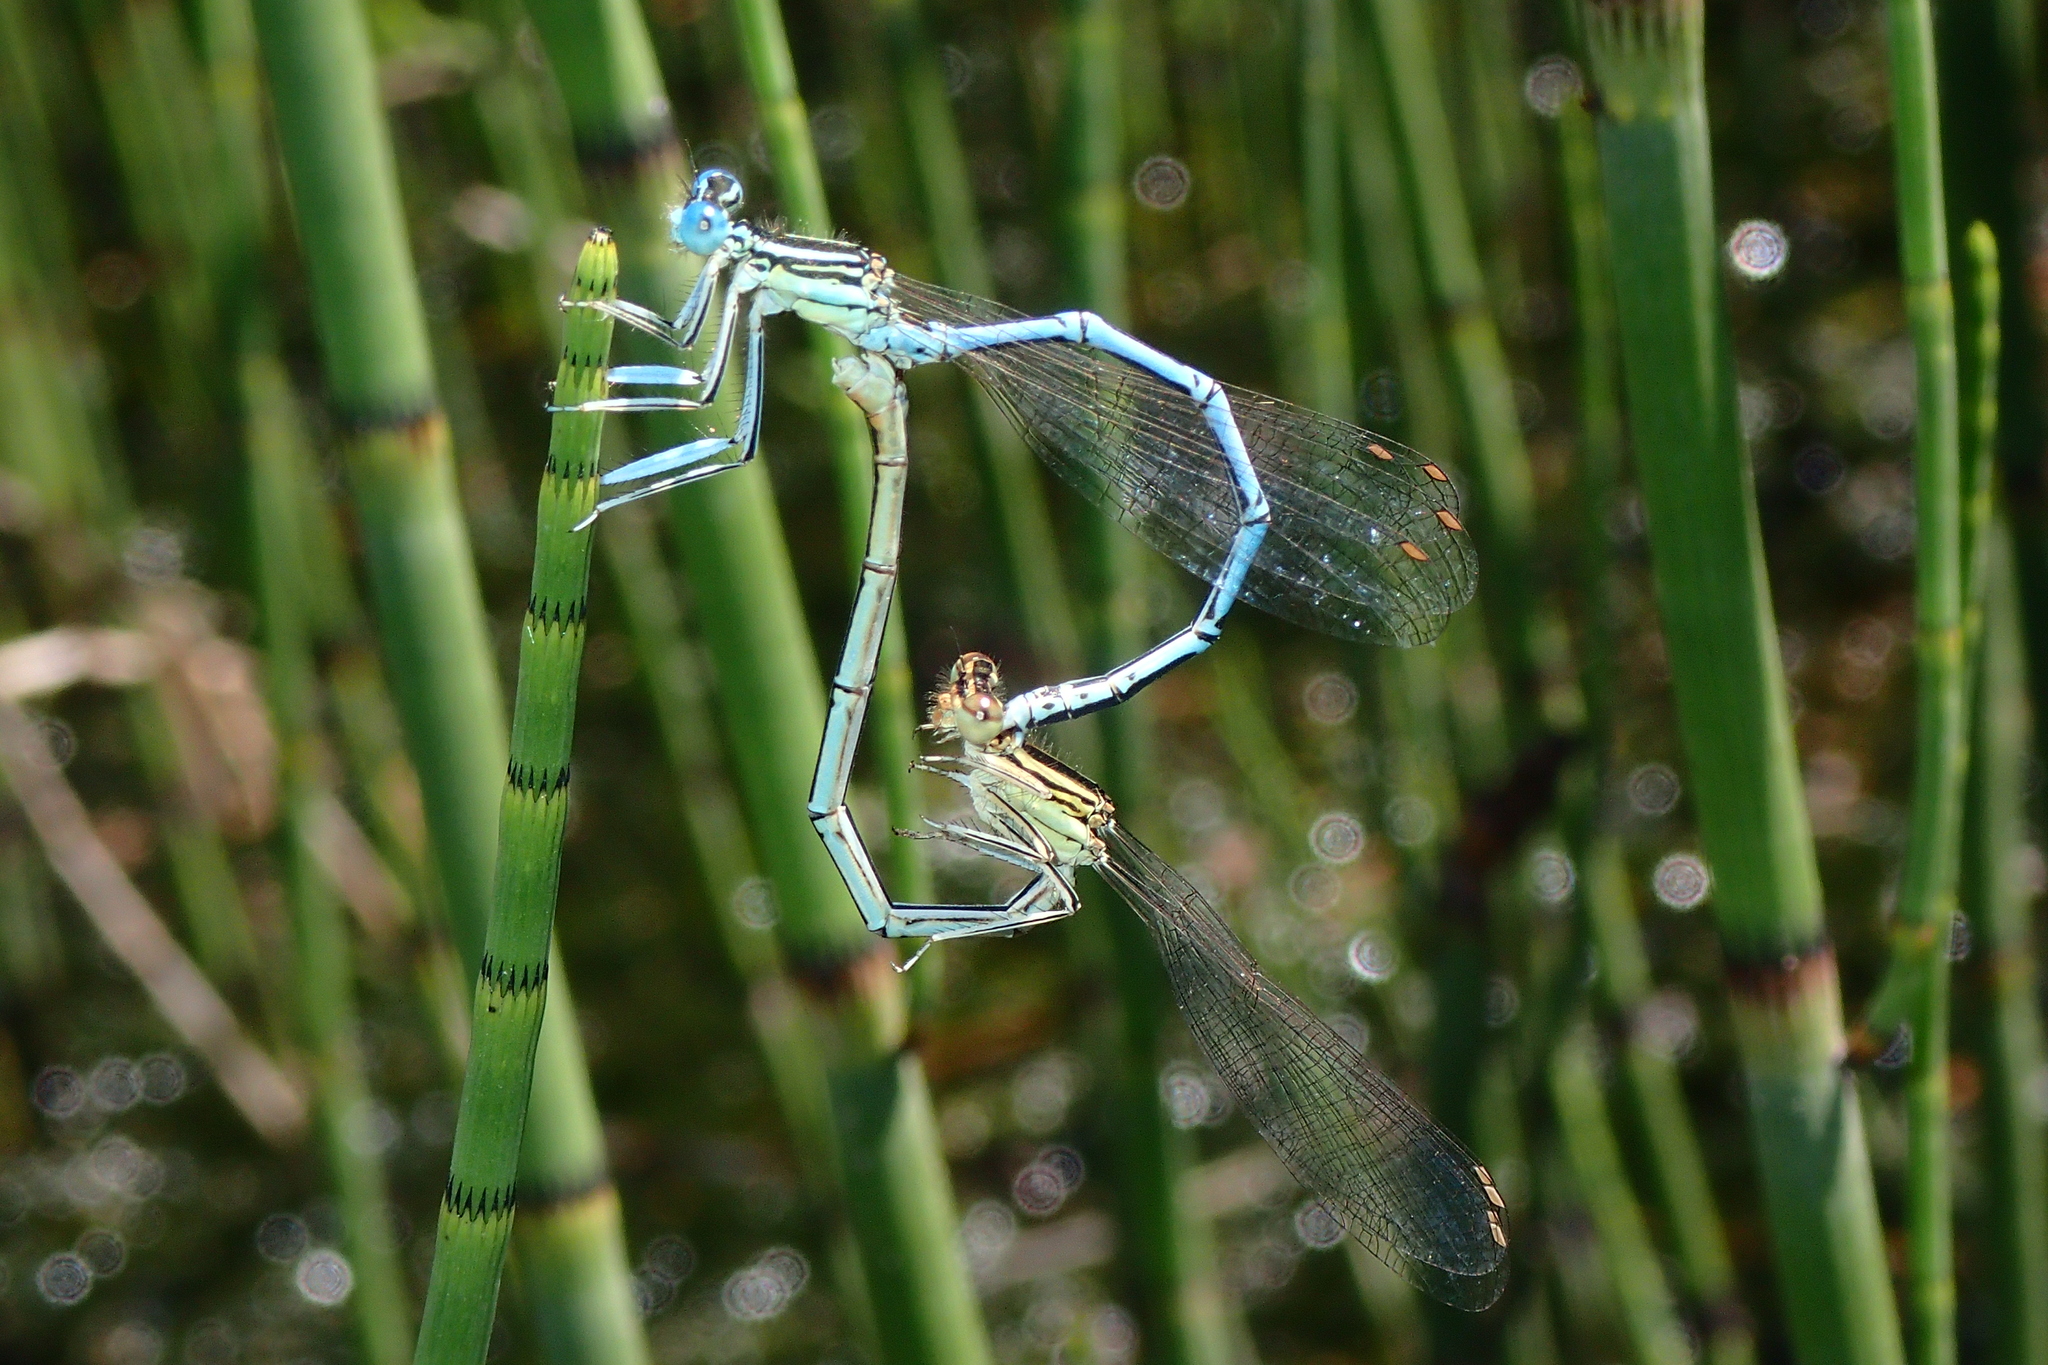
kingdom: Animalia
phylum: Arthropoda
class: Insecta
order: Odonata
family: Platycnemididae
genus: Platycnemis
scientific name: Platycnemis pennipes
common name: White-legged damselfly
